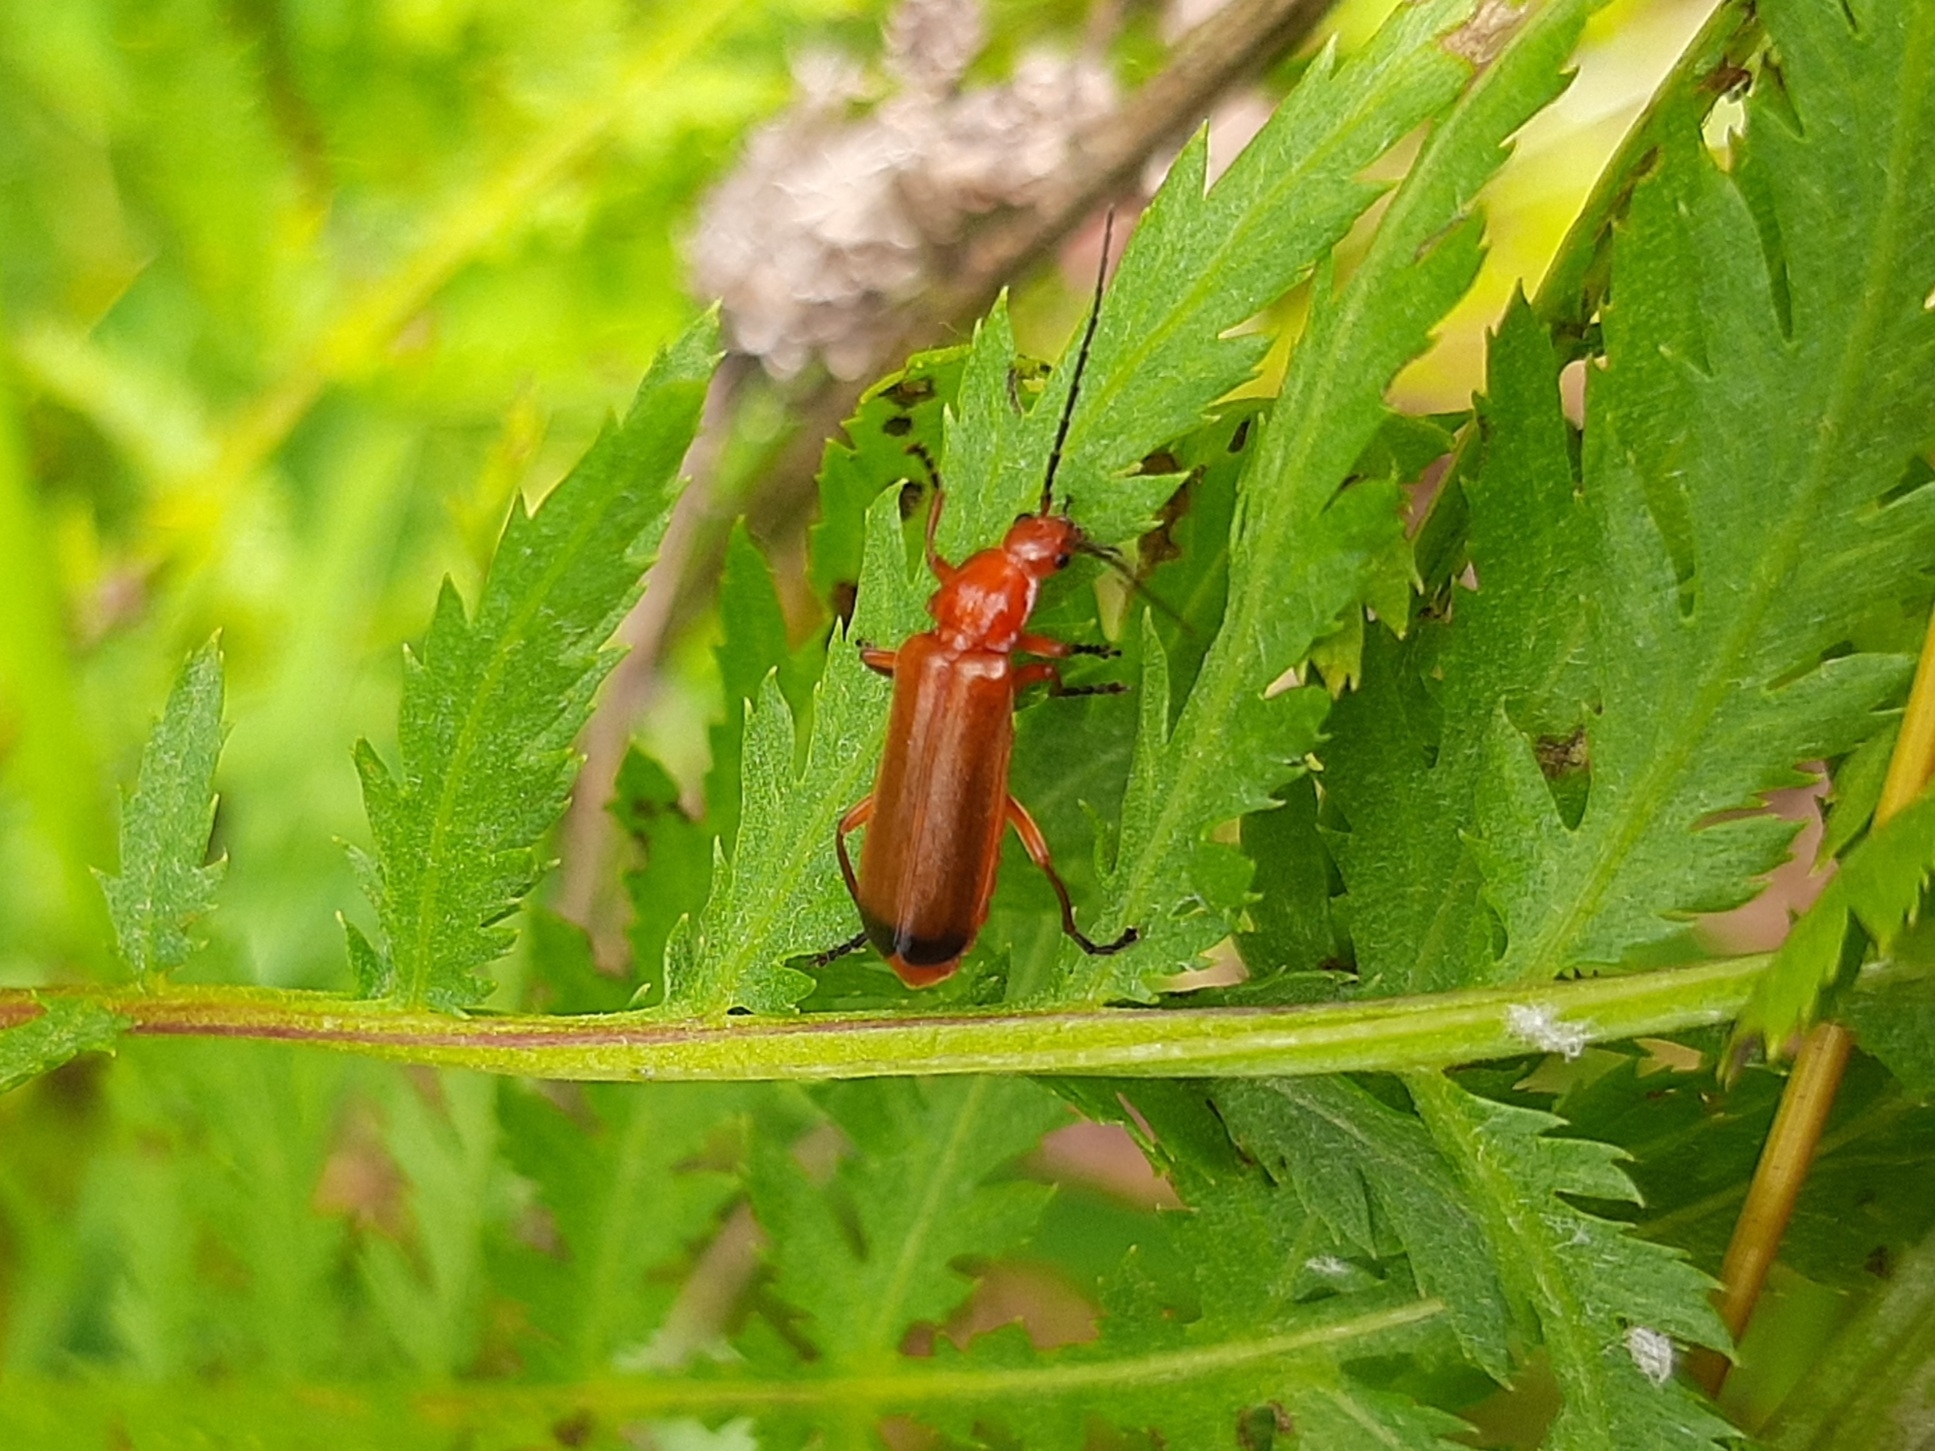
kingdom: Animalia
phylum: Arthropoda
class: Insecta
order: Coleoptera
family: Cantharidae
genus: Rhagonycha
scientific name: Rhagonycha fulva
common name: Common red soldier beetle
